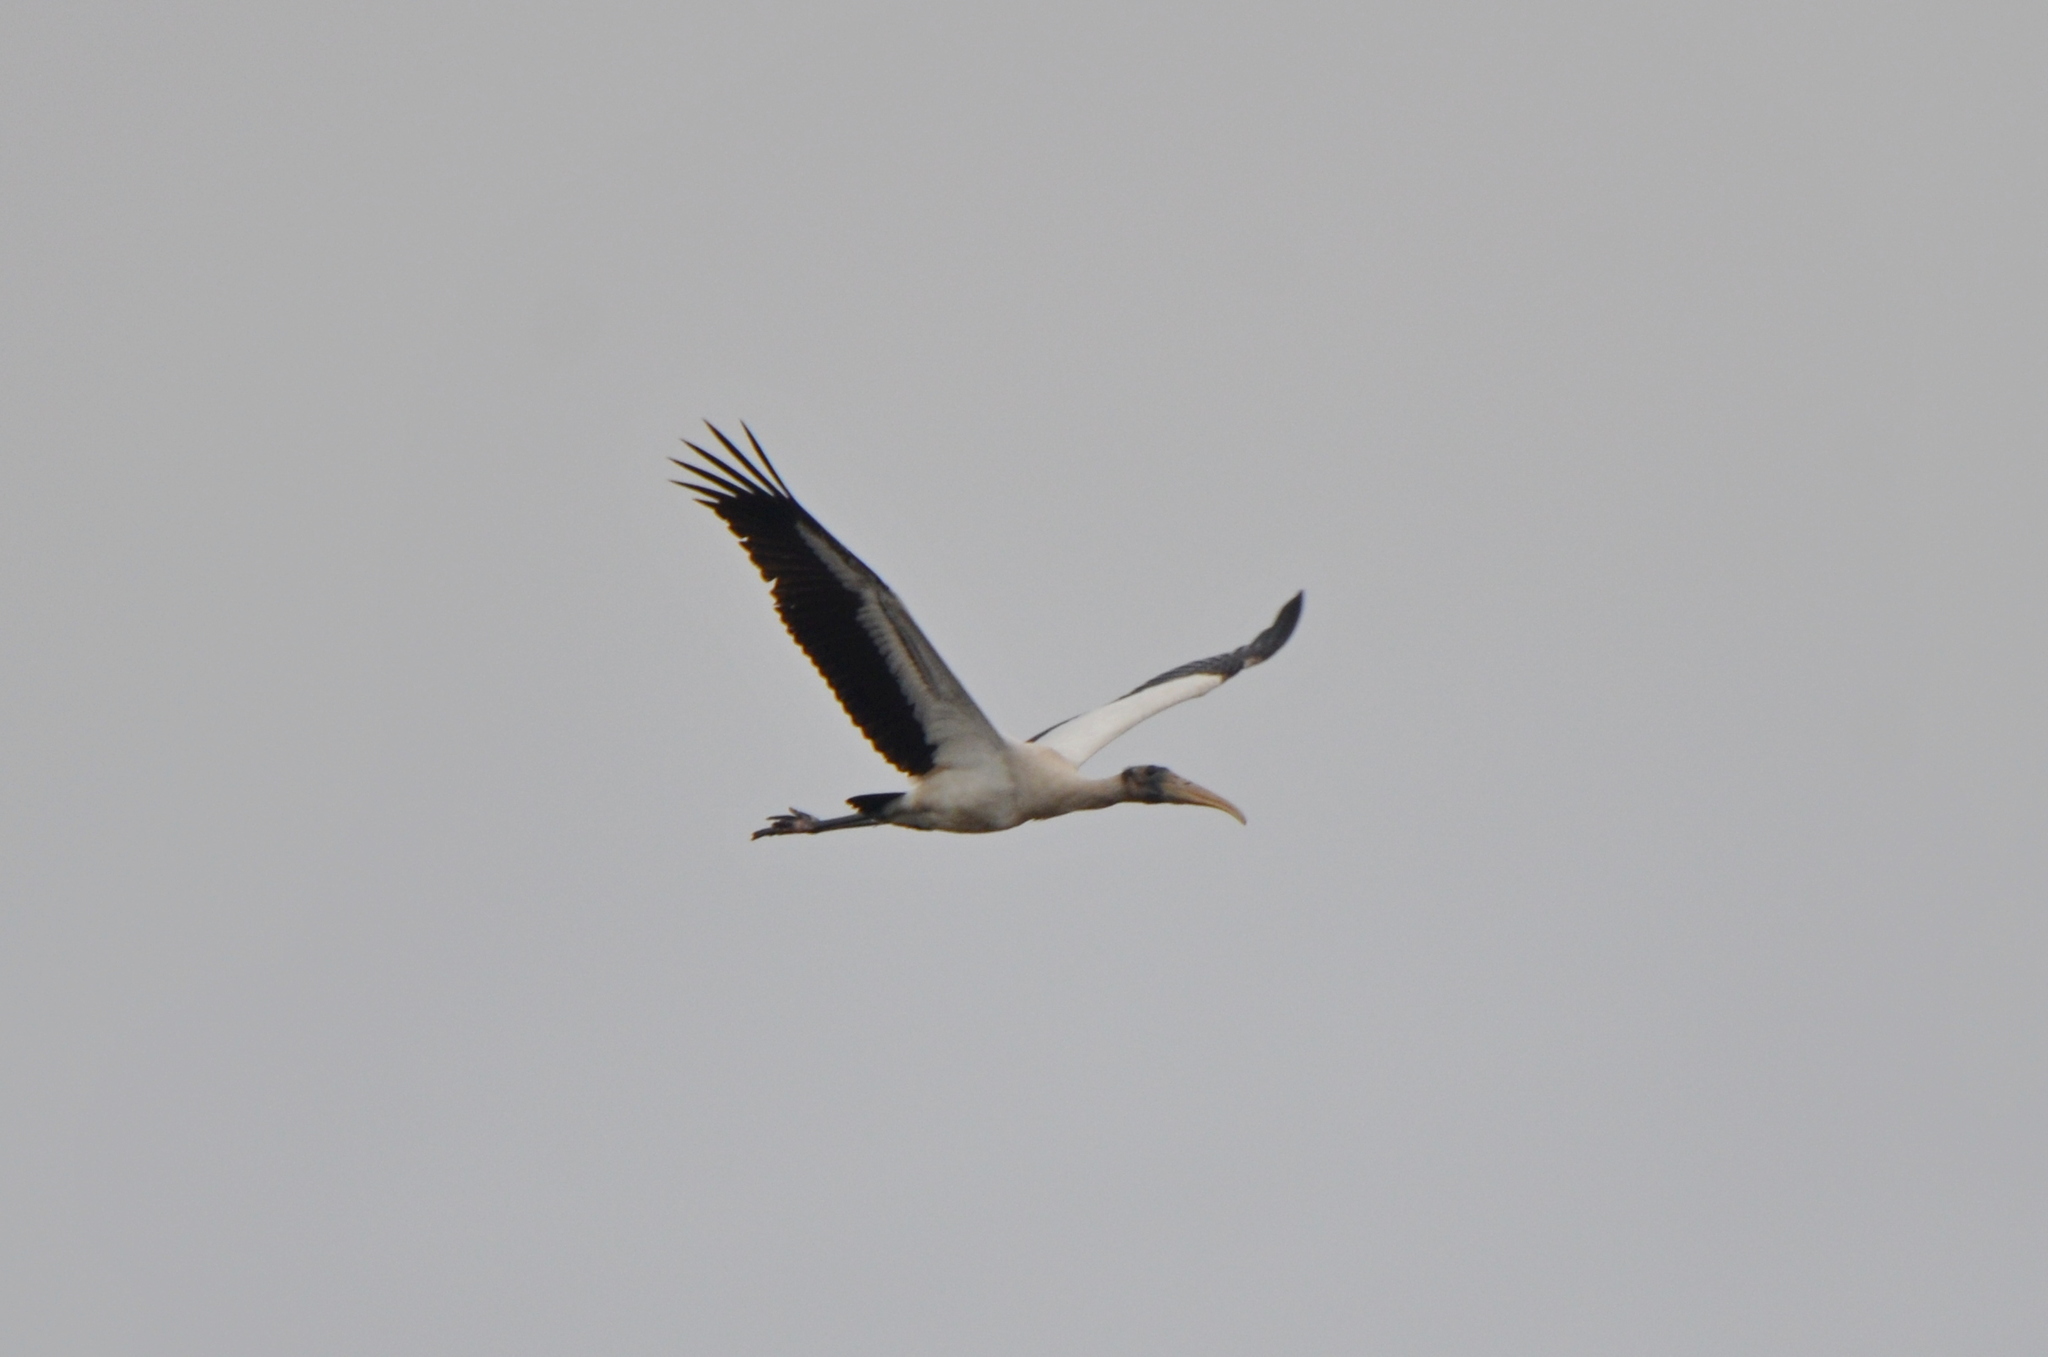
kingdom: Animalia
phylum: Chordata
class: Aves
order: Ciconiiformes
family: Ciconiidae
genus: Mycteria
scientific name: Mycteria americana
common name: Wood stork
